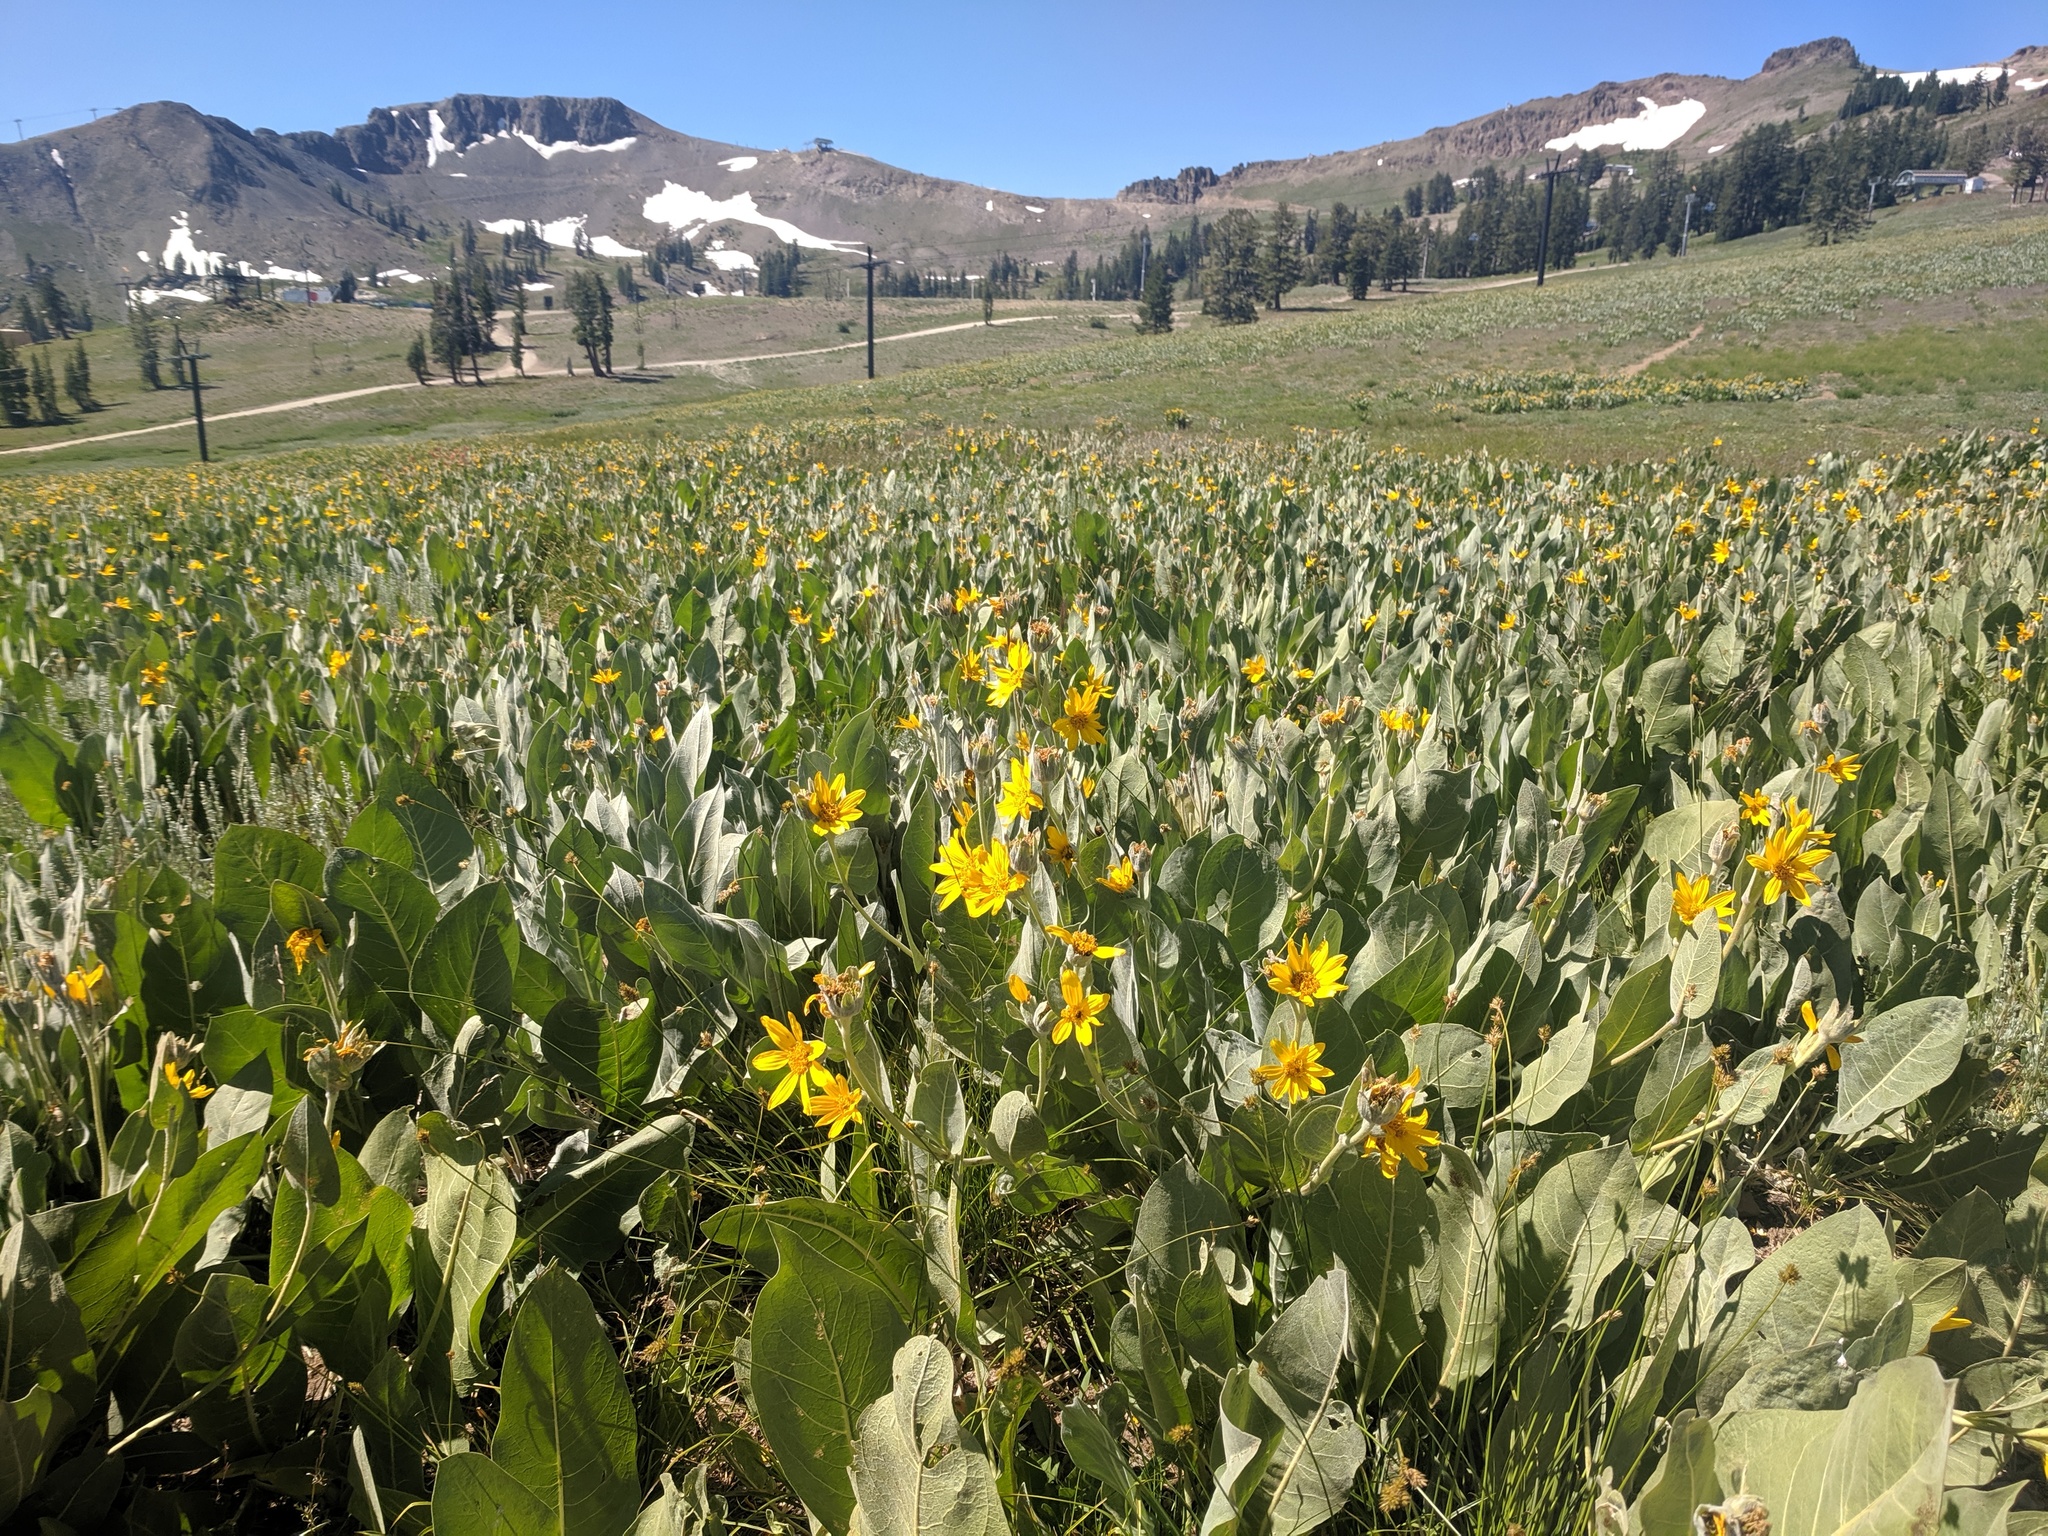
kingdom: Plantae
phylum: Tracheophyta
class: Magnoliopsida
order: Asterales
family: Asteraceae
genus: Wyethia
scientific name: Wyethia mollis
